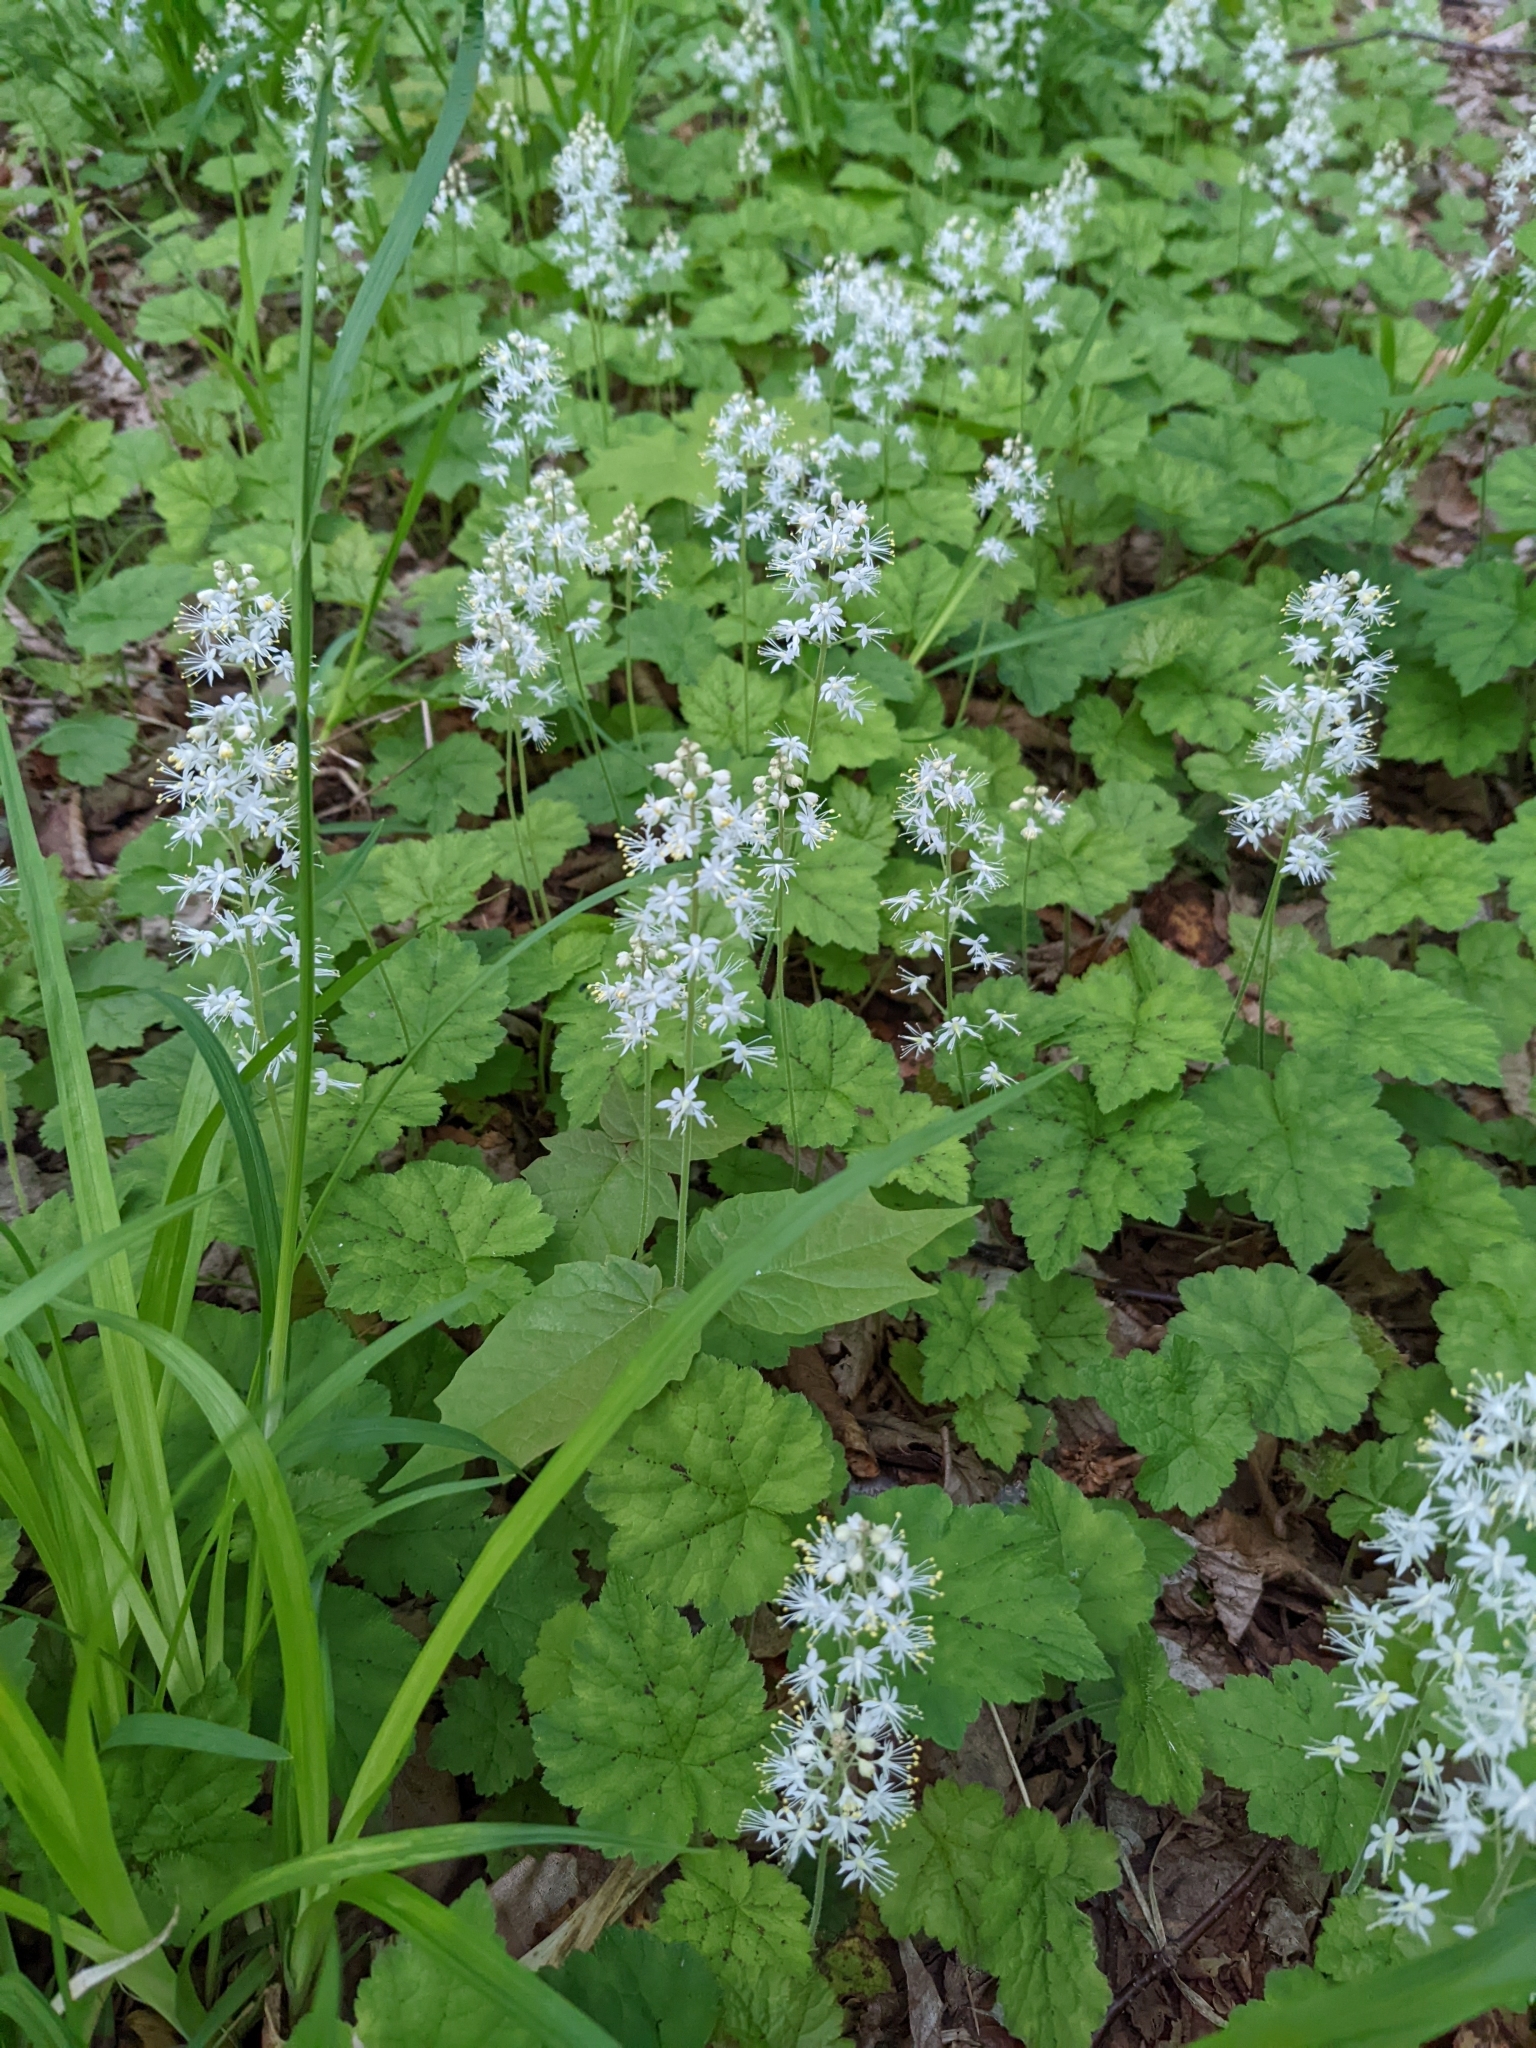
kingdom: Plantae
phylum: Tracheophyta
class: Magnoliopsida
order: Saxifragales
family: Saxifragaceae
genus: Tiarella
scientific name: Tiarella stolonifera
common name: Stoloniferous foamflower
